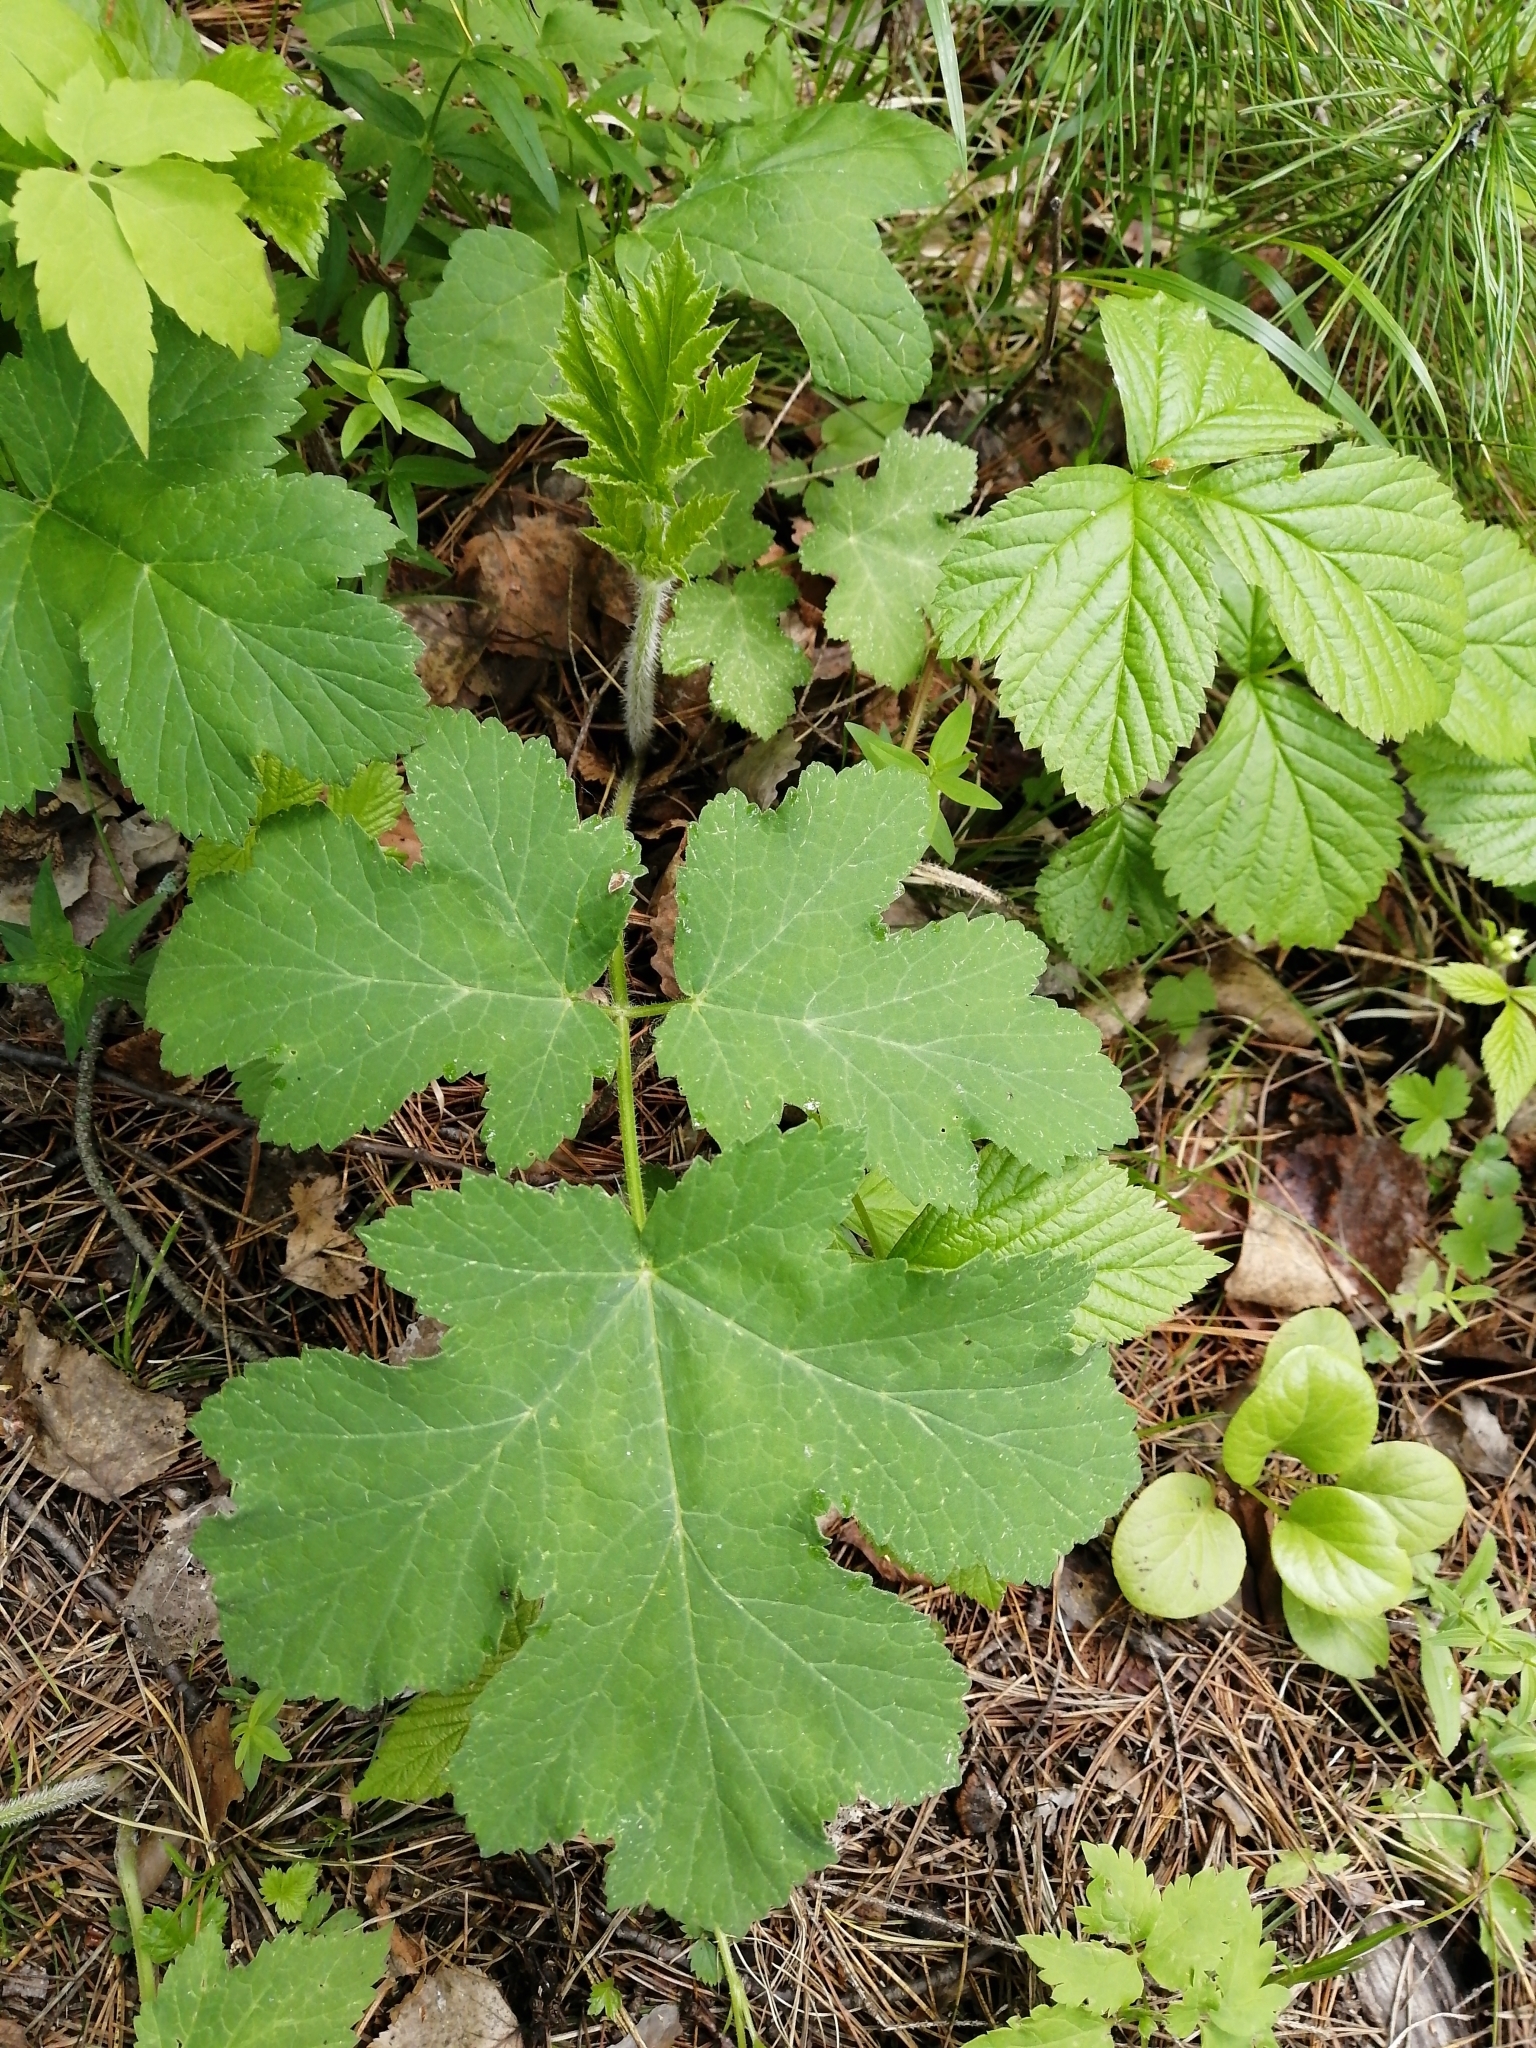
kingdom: Plantae
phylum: Tracheophyta
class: Magnoliopsida
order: Apiales
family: Apiaceae
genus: Heracleum
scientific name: Heracleum dissectum
